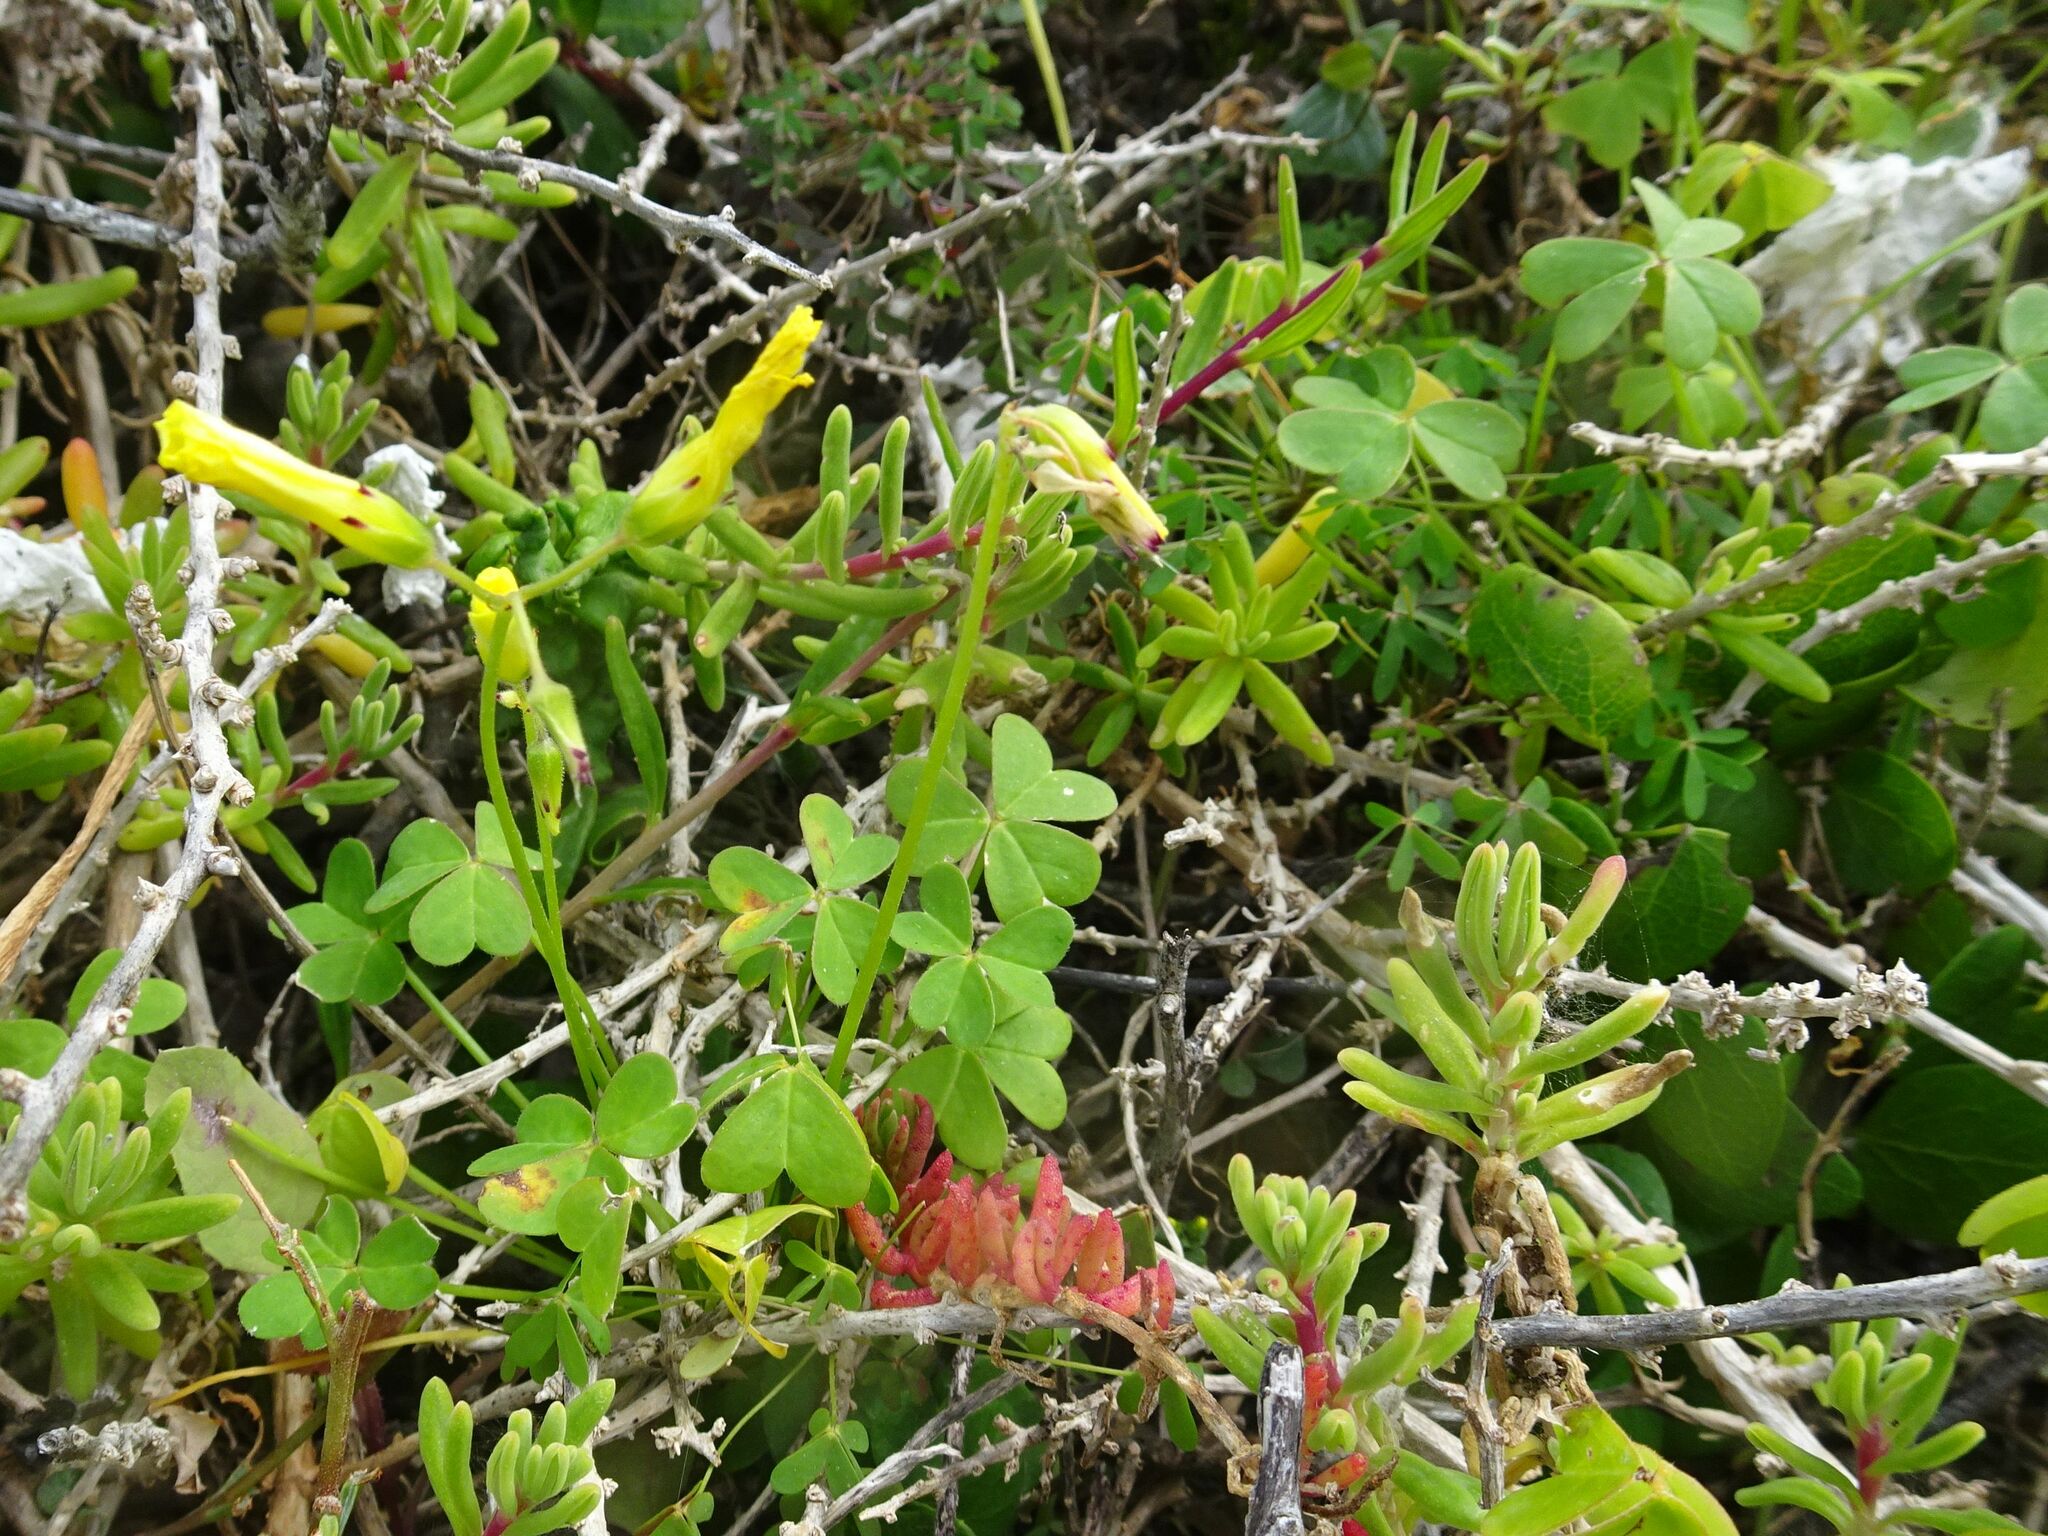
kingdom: Plantae
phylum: Tracheophyta
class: Magnoliopsida
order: Oxalidales
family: Oxalidaceae
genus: Oxalis
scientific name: Oxalis pes-caprae
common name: Bermuda-buttercup
